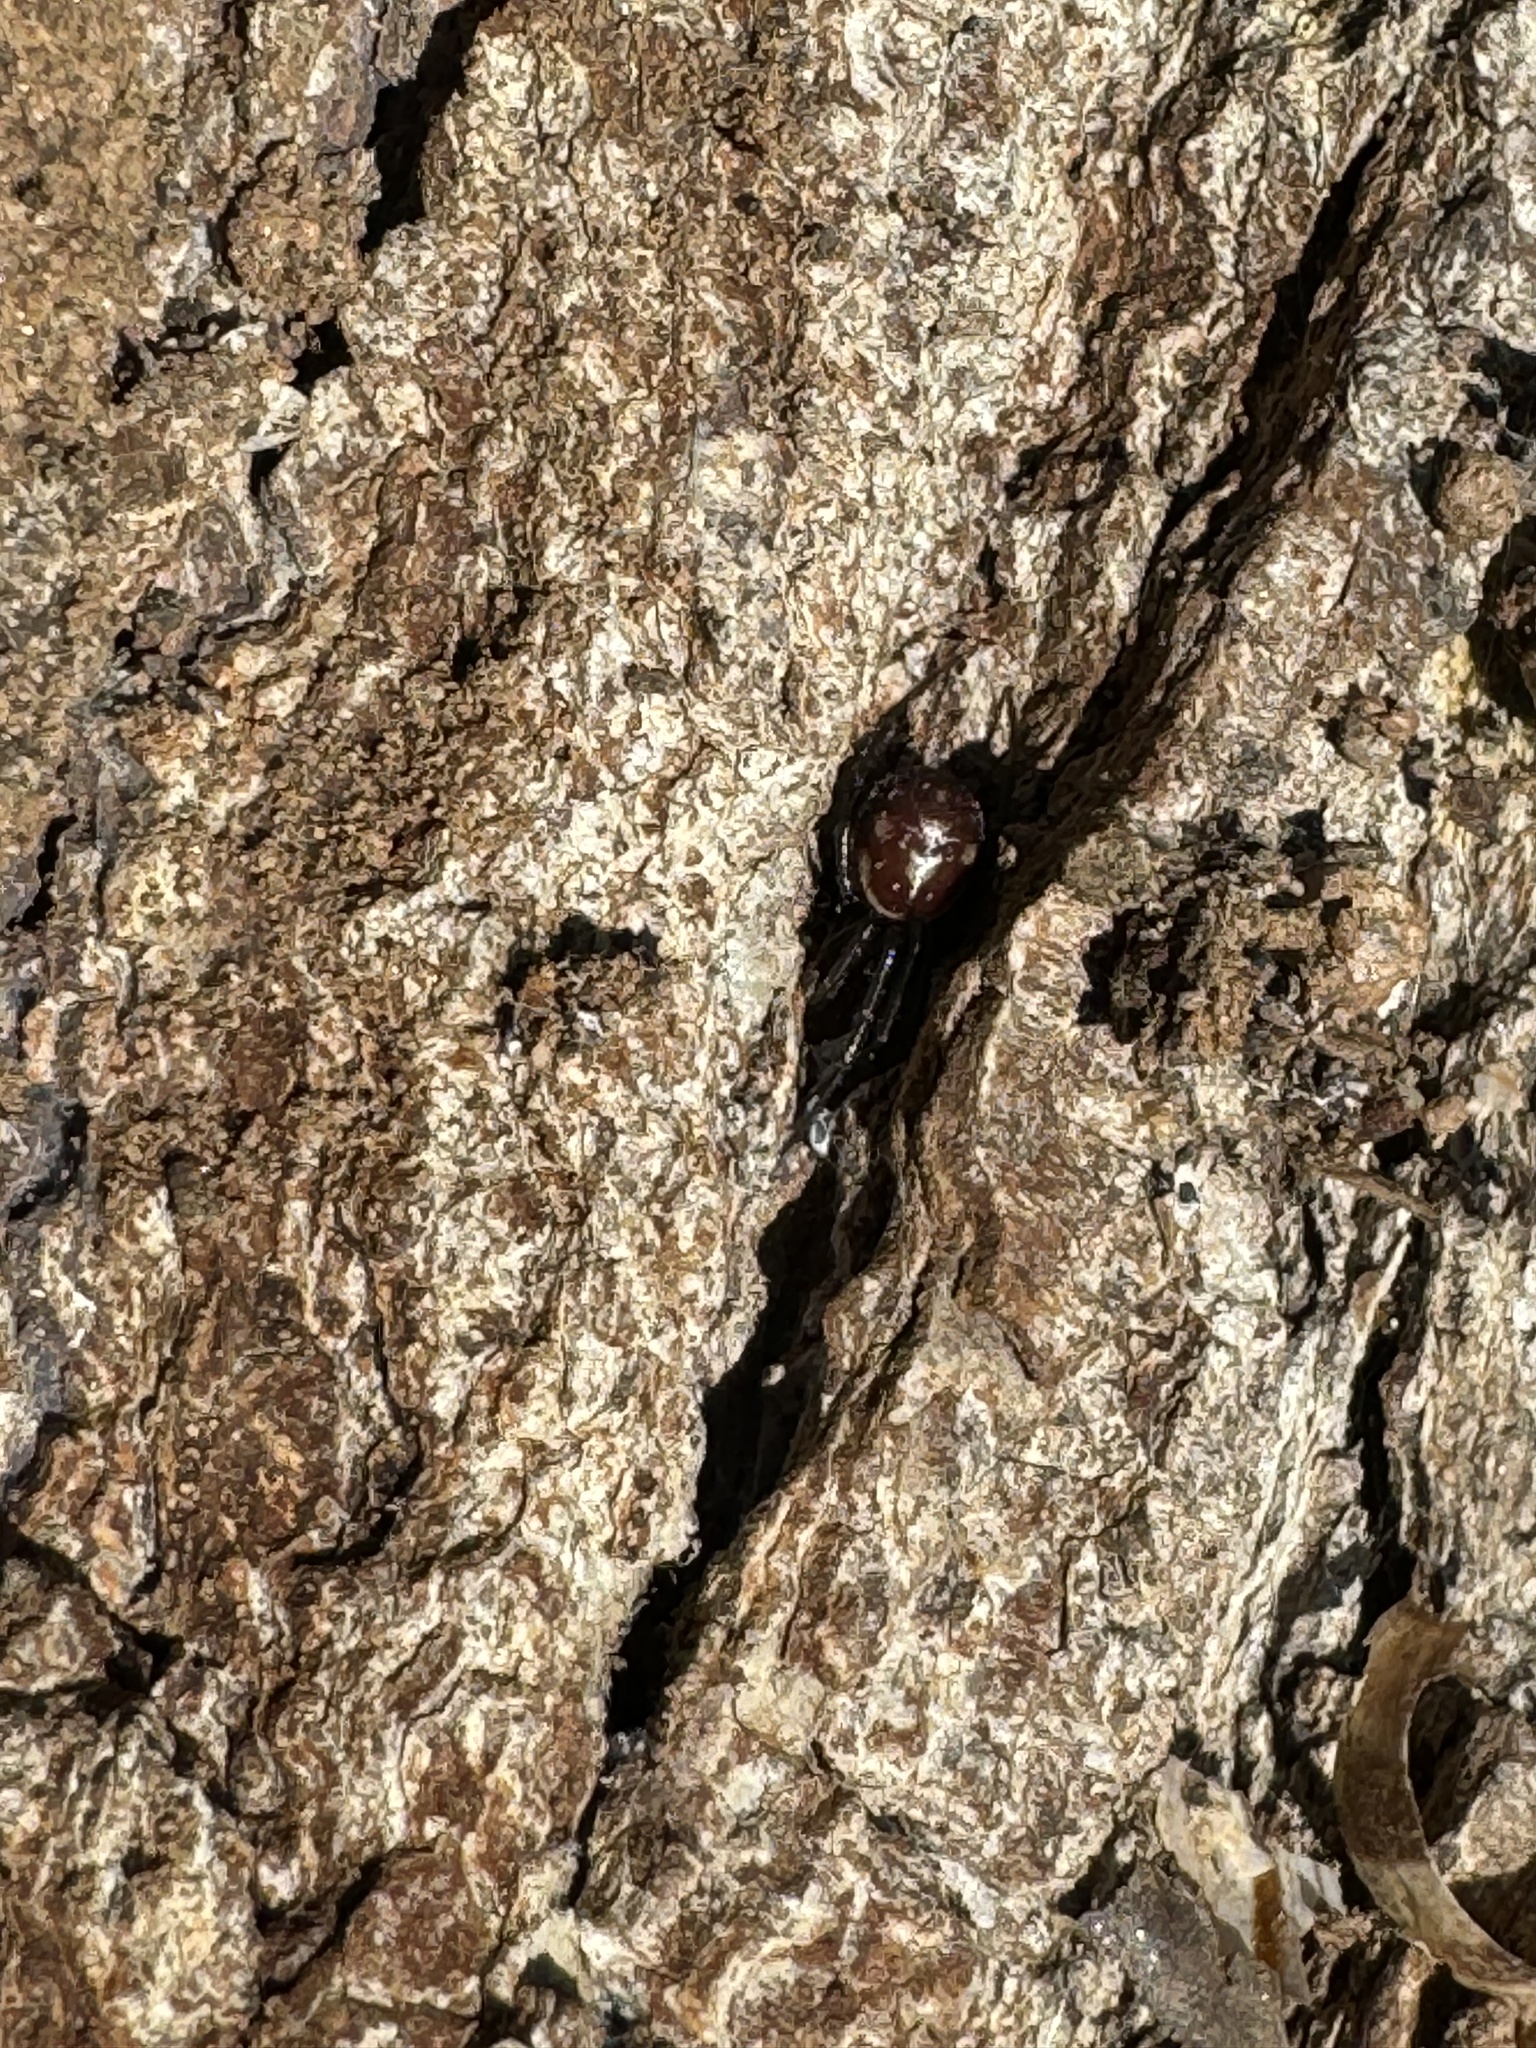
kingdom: Animalia
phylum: Arthropoda
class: Arachnida
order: Araneae
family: Theridiidae
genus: Steatoda
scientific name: Steatoda grossa
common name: False black widow
